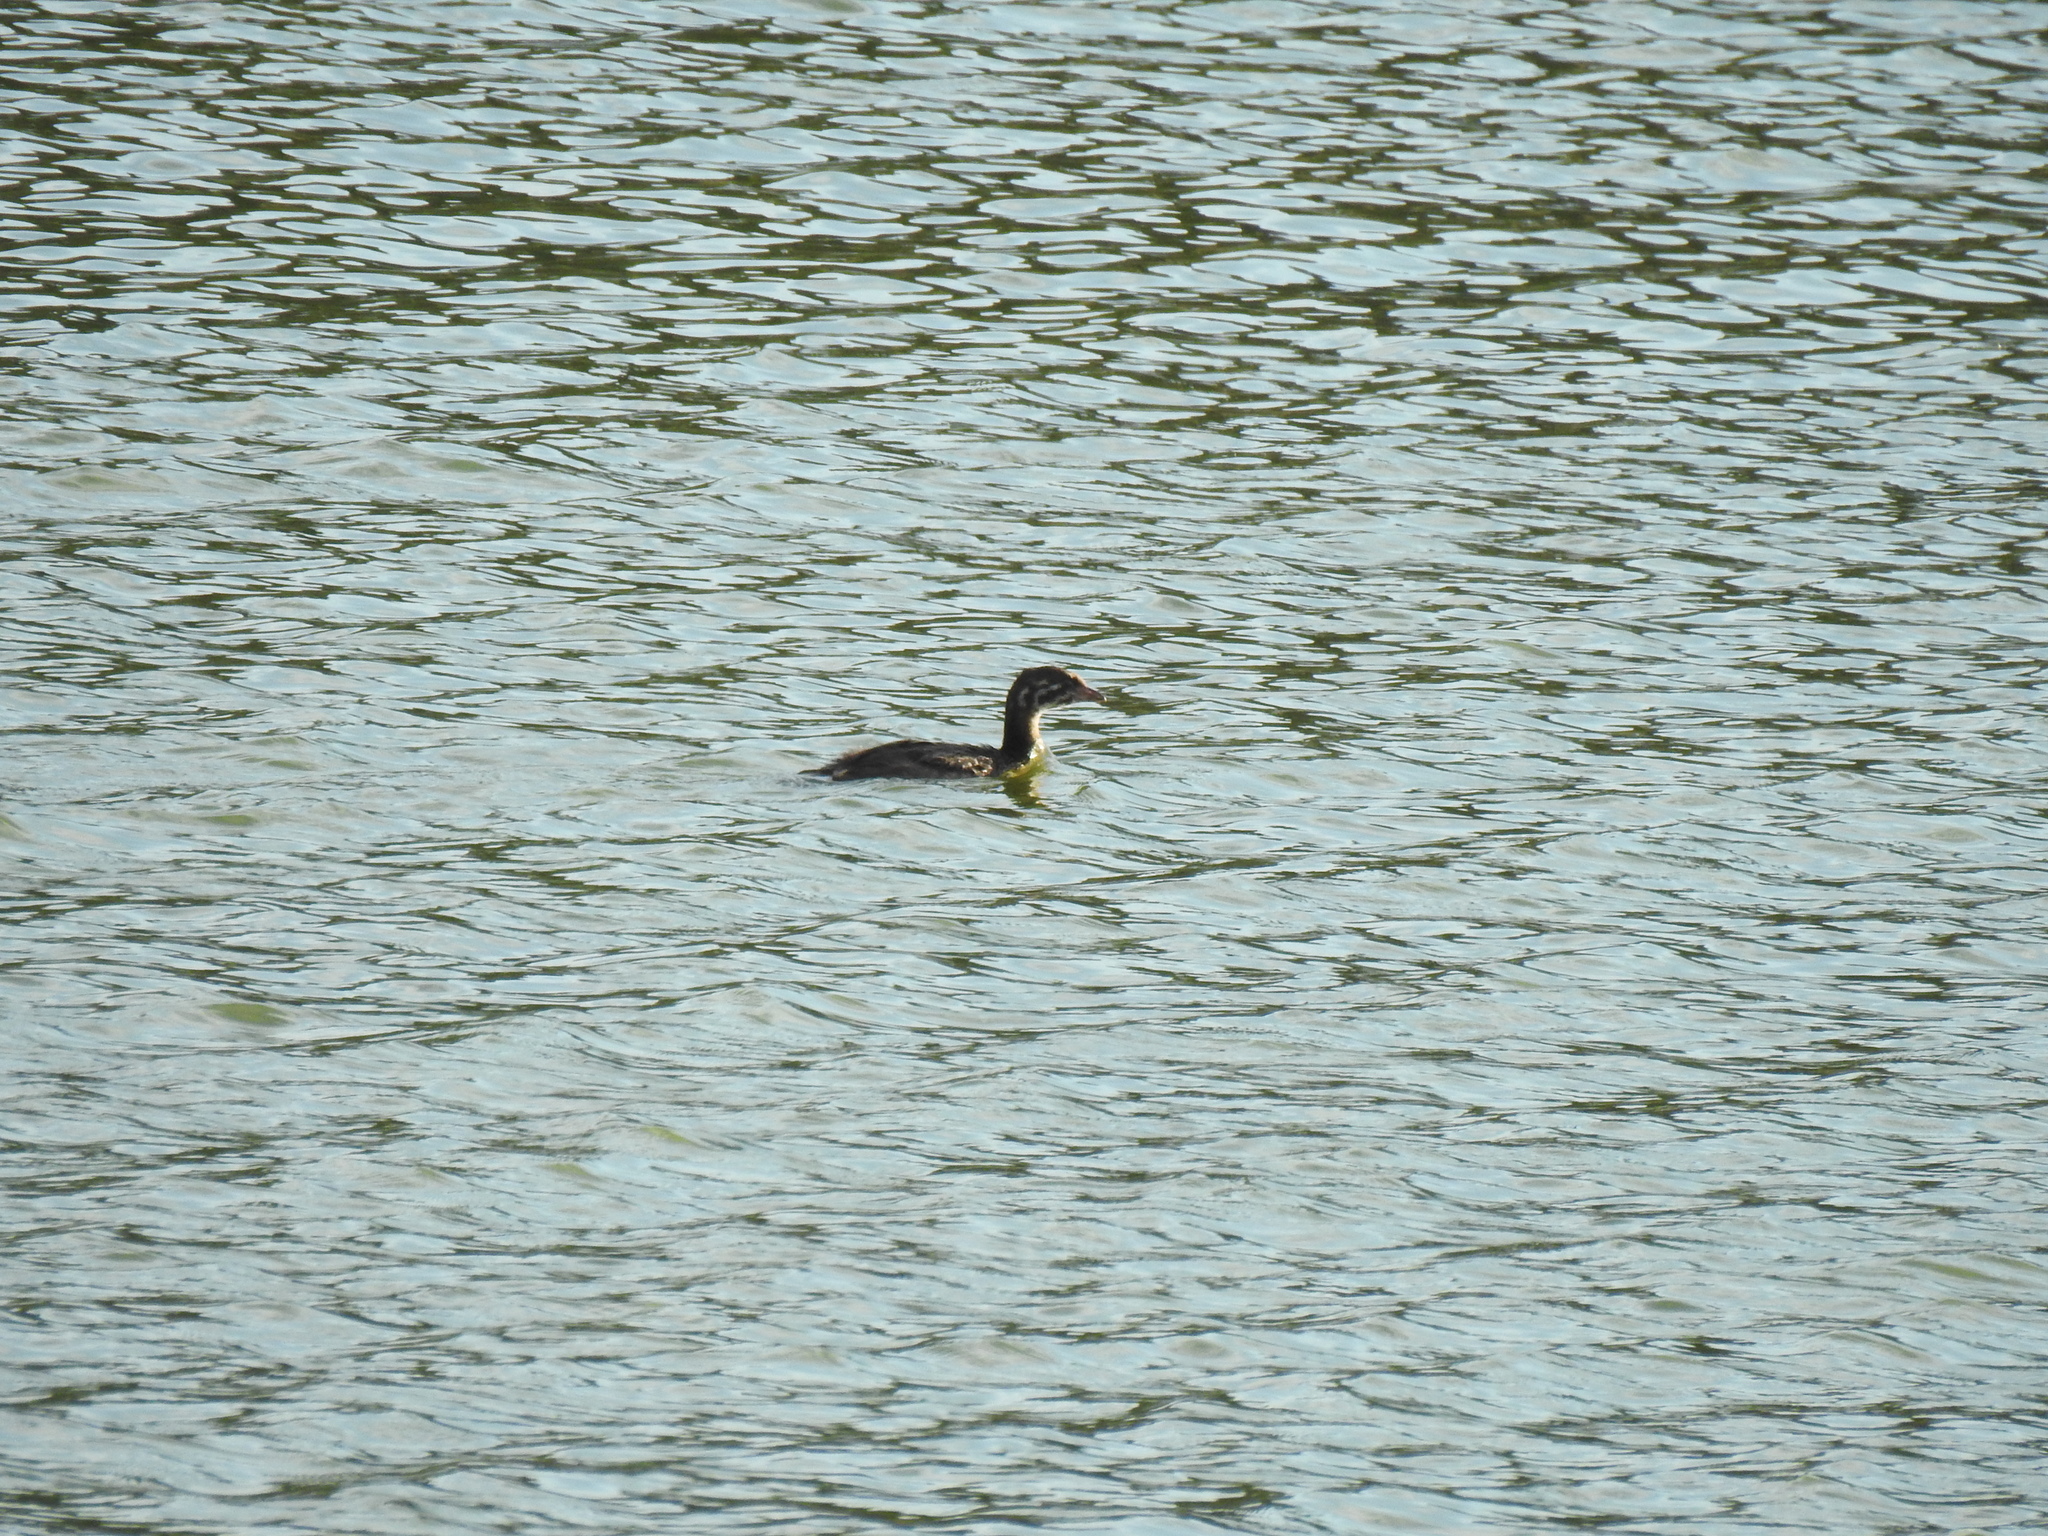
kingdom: Animalia
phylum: Chordata
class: Aves
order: Podicipediformes
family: Podicipedidae
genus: Podilymbus
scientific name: Podilymbus podiceps
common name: Pied-billed grebe
